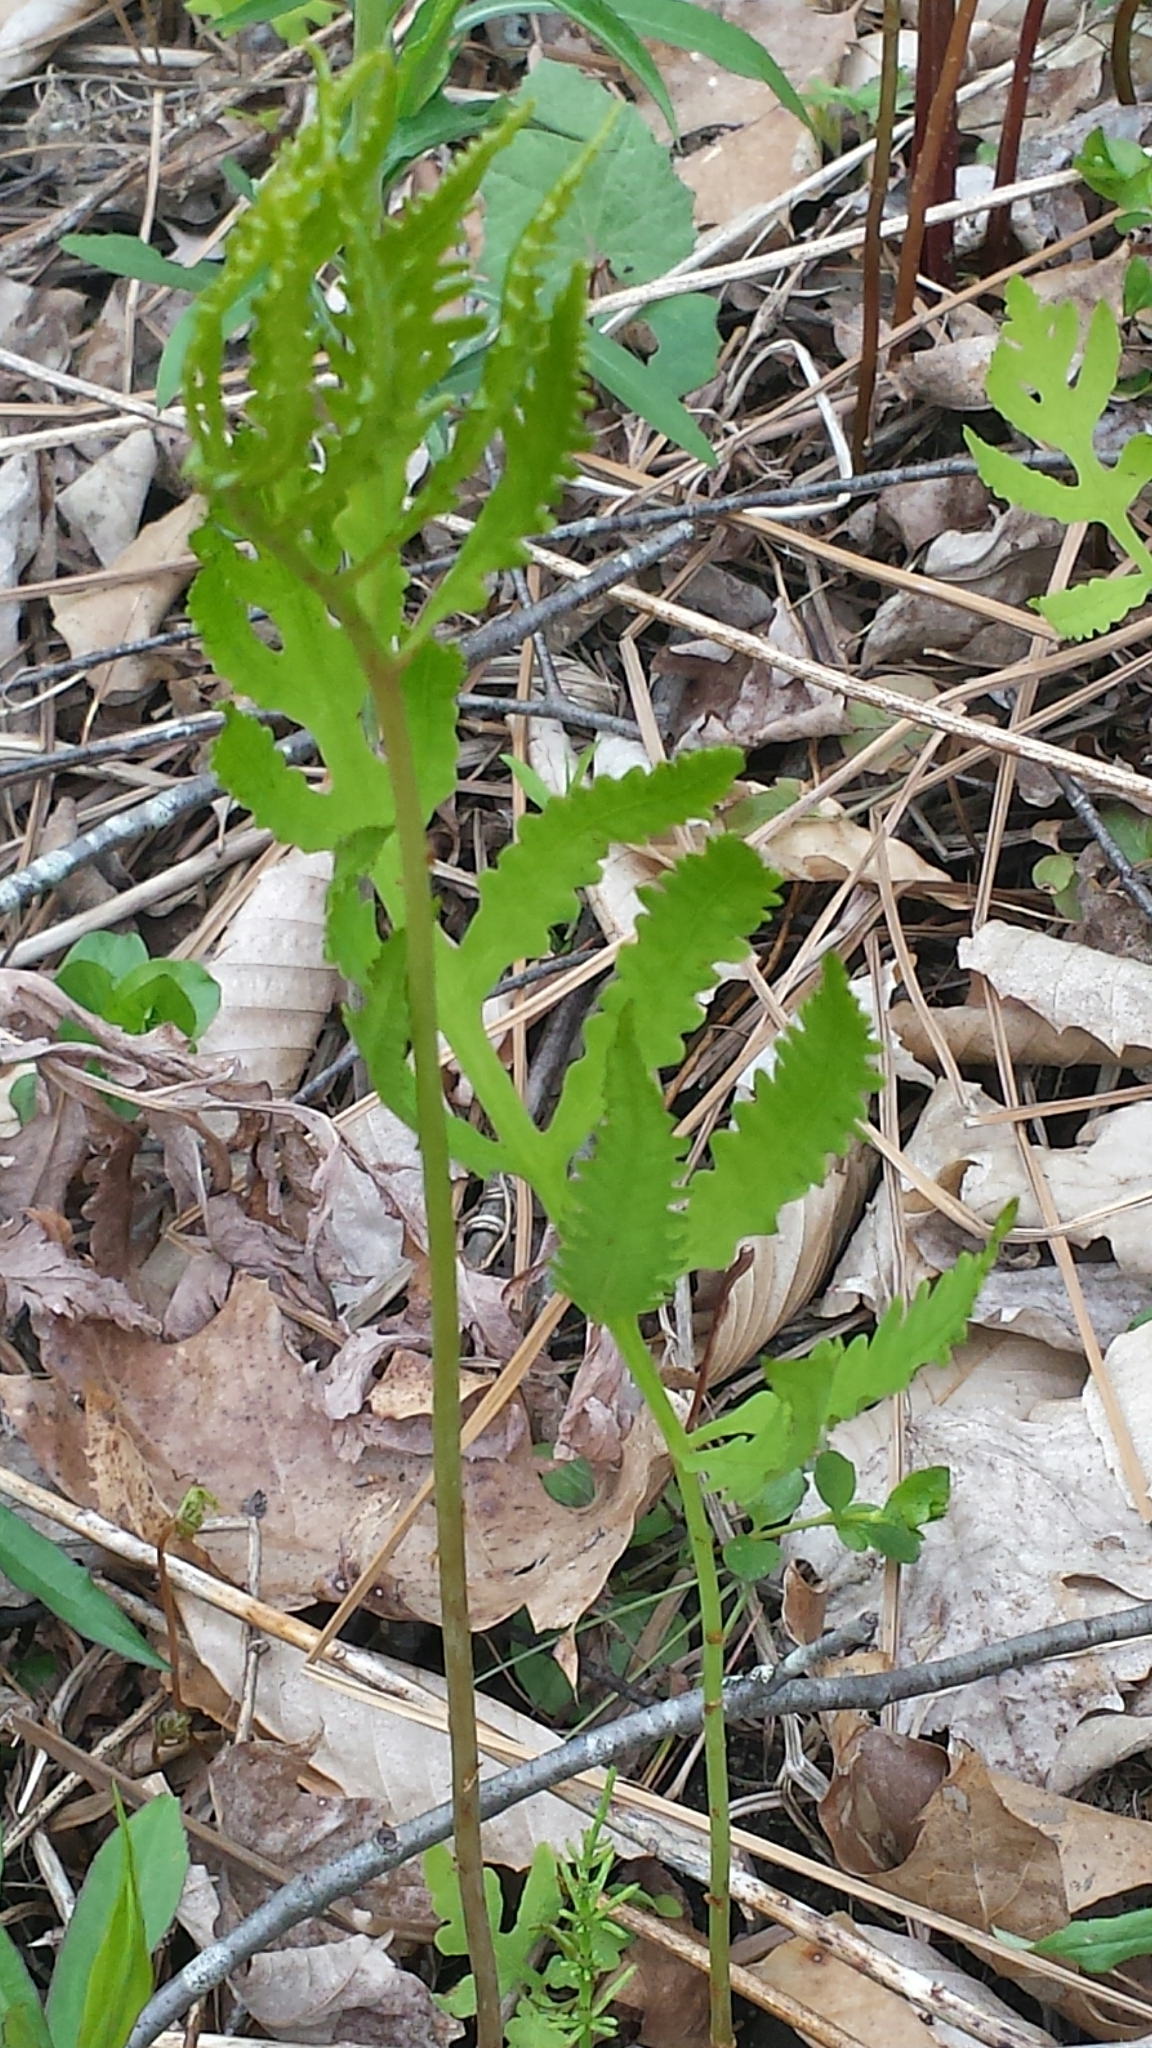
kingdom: Plantae
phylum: Tracheophyta
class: Polypodiopsida
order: Polypodiales
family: Onocleaceae
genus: Onoclea
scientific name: Onoclea sensibilis
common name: Sensitive fern
